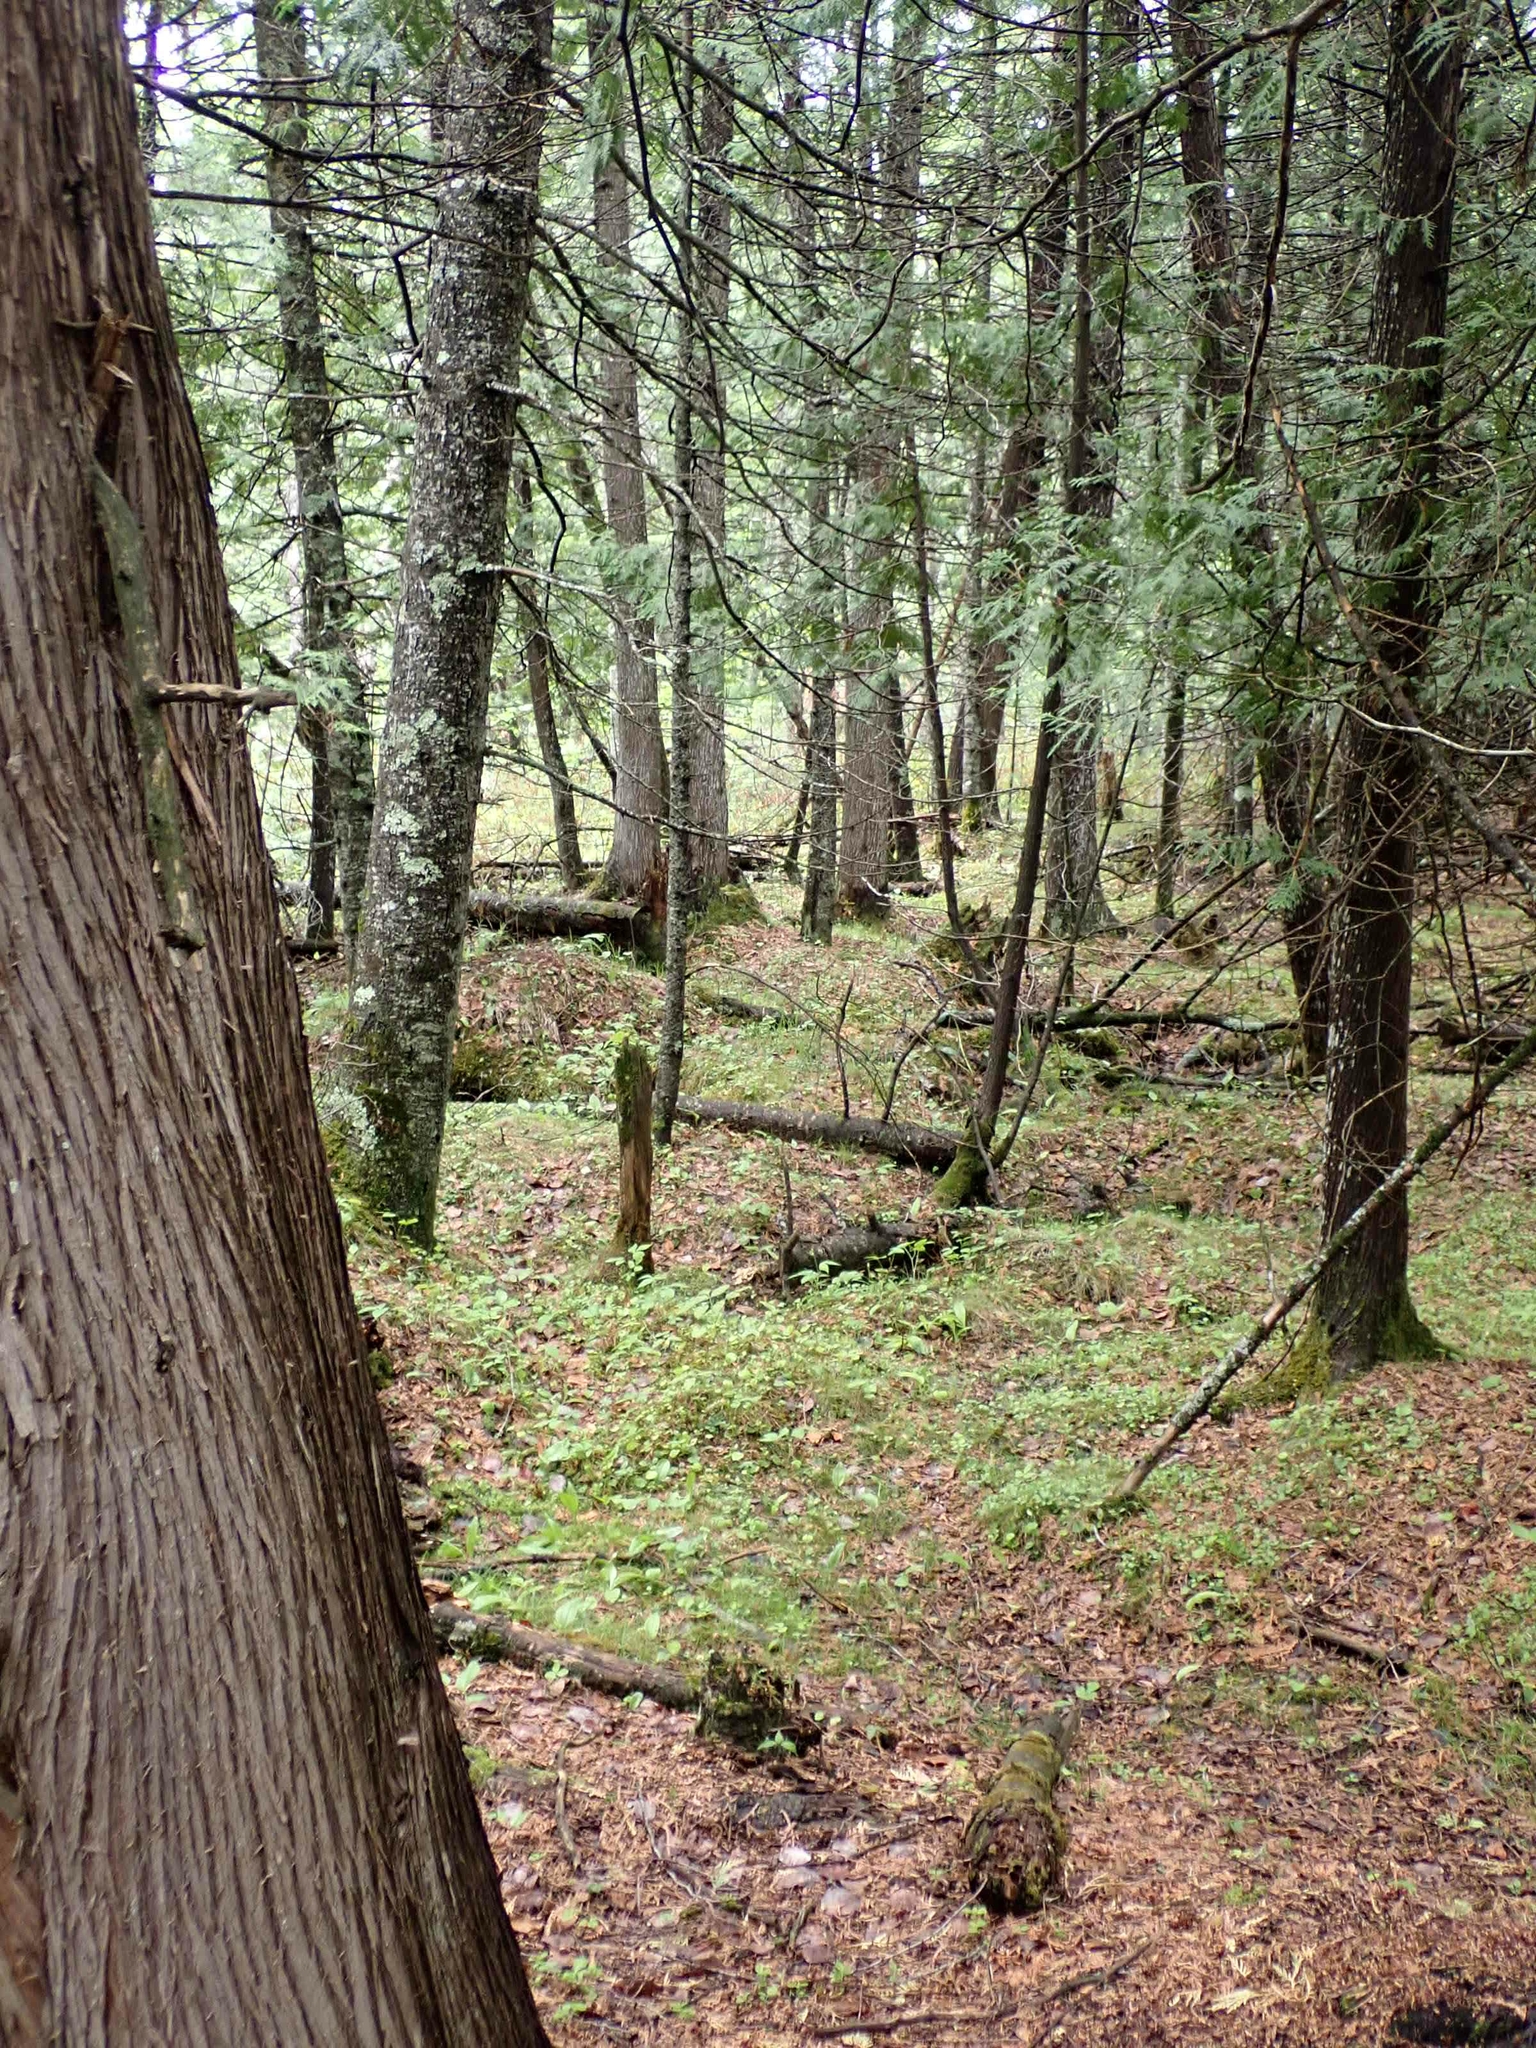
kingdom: Plantae
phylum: Tracheophyta
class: Pinopsida
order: Pinales
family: Cupressaceae
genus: Thuja
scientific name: Thuja occidentalis
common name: Northern white-cedar
